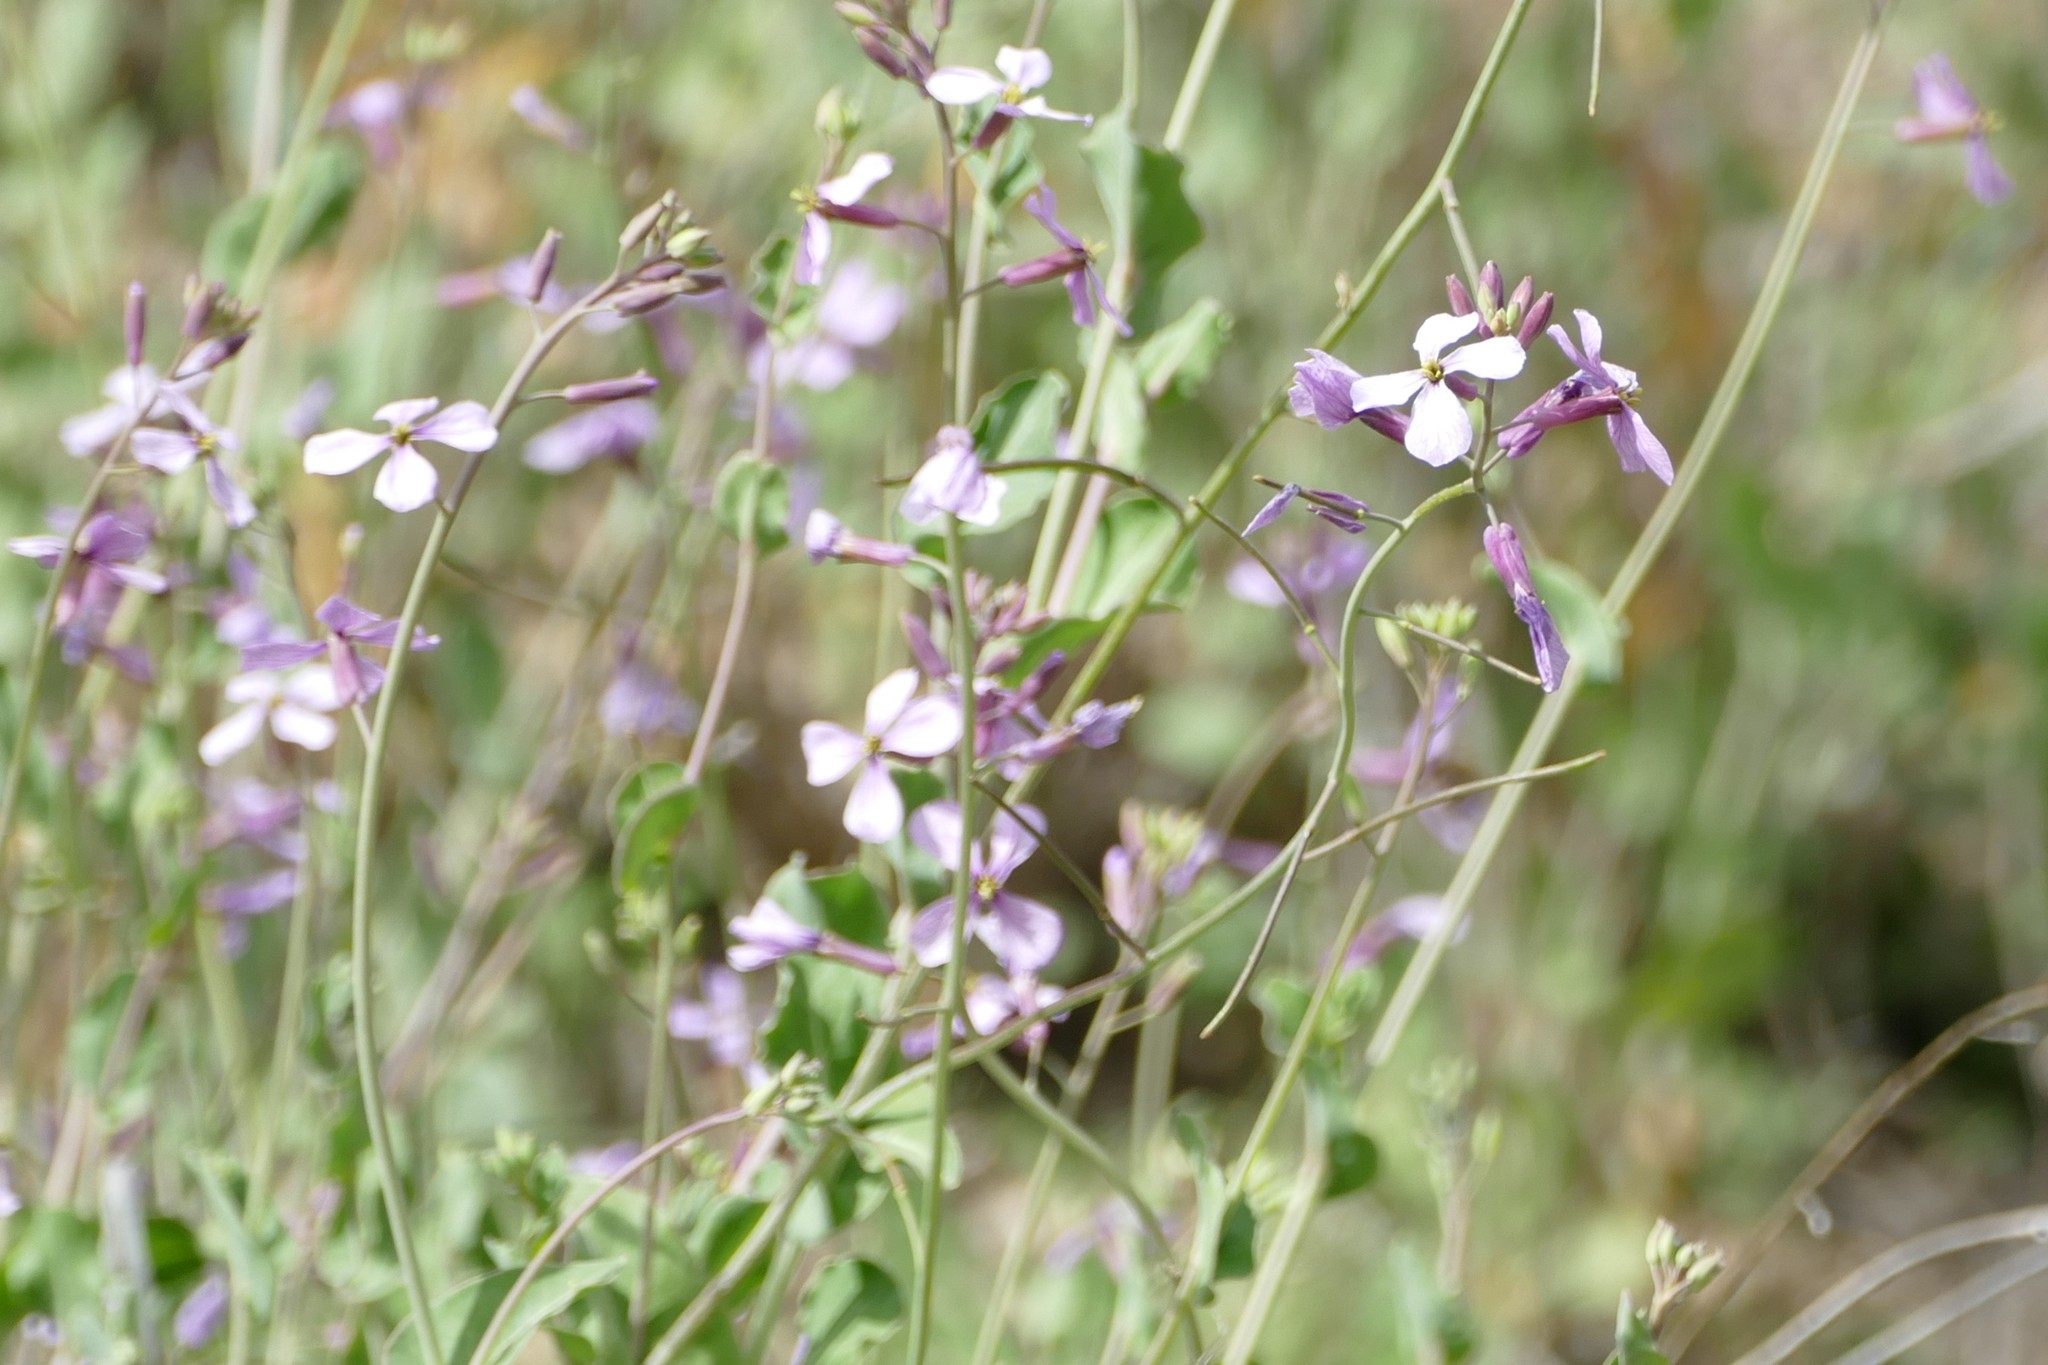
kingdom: Plantae
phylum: Tracheophyta
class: Magnoliopsida
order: Brassicales
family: Brassicaceae
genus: Moricandia
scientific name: Moricandia arvensis
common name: Purple mistress
